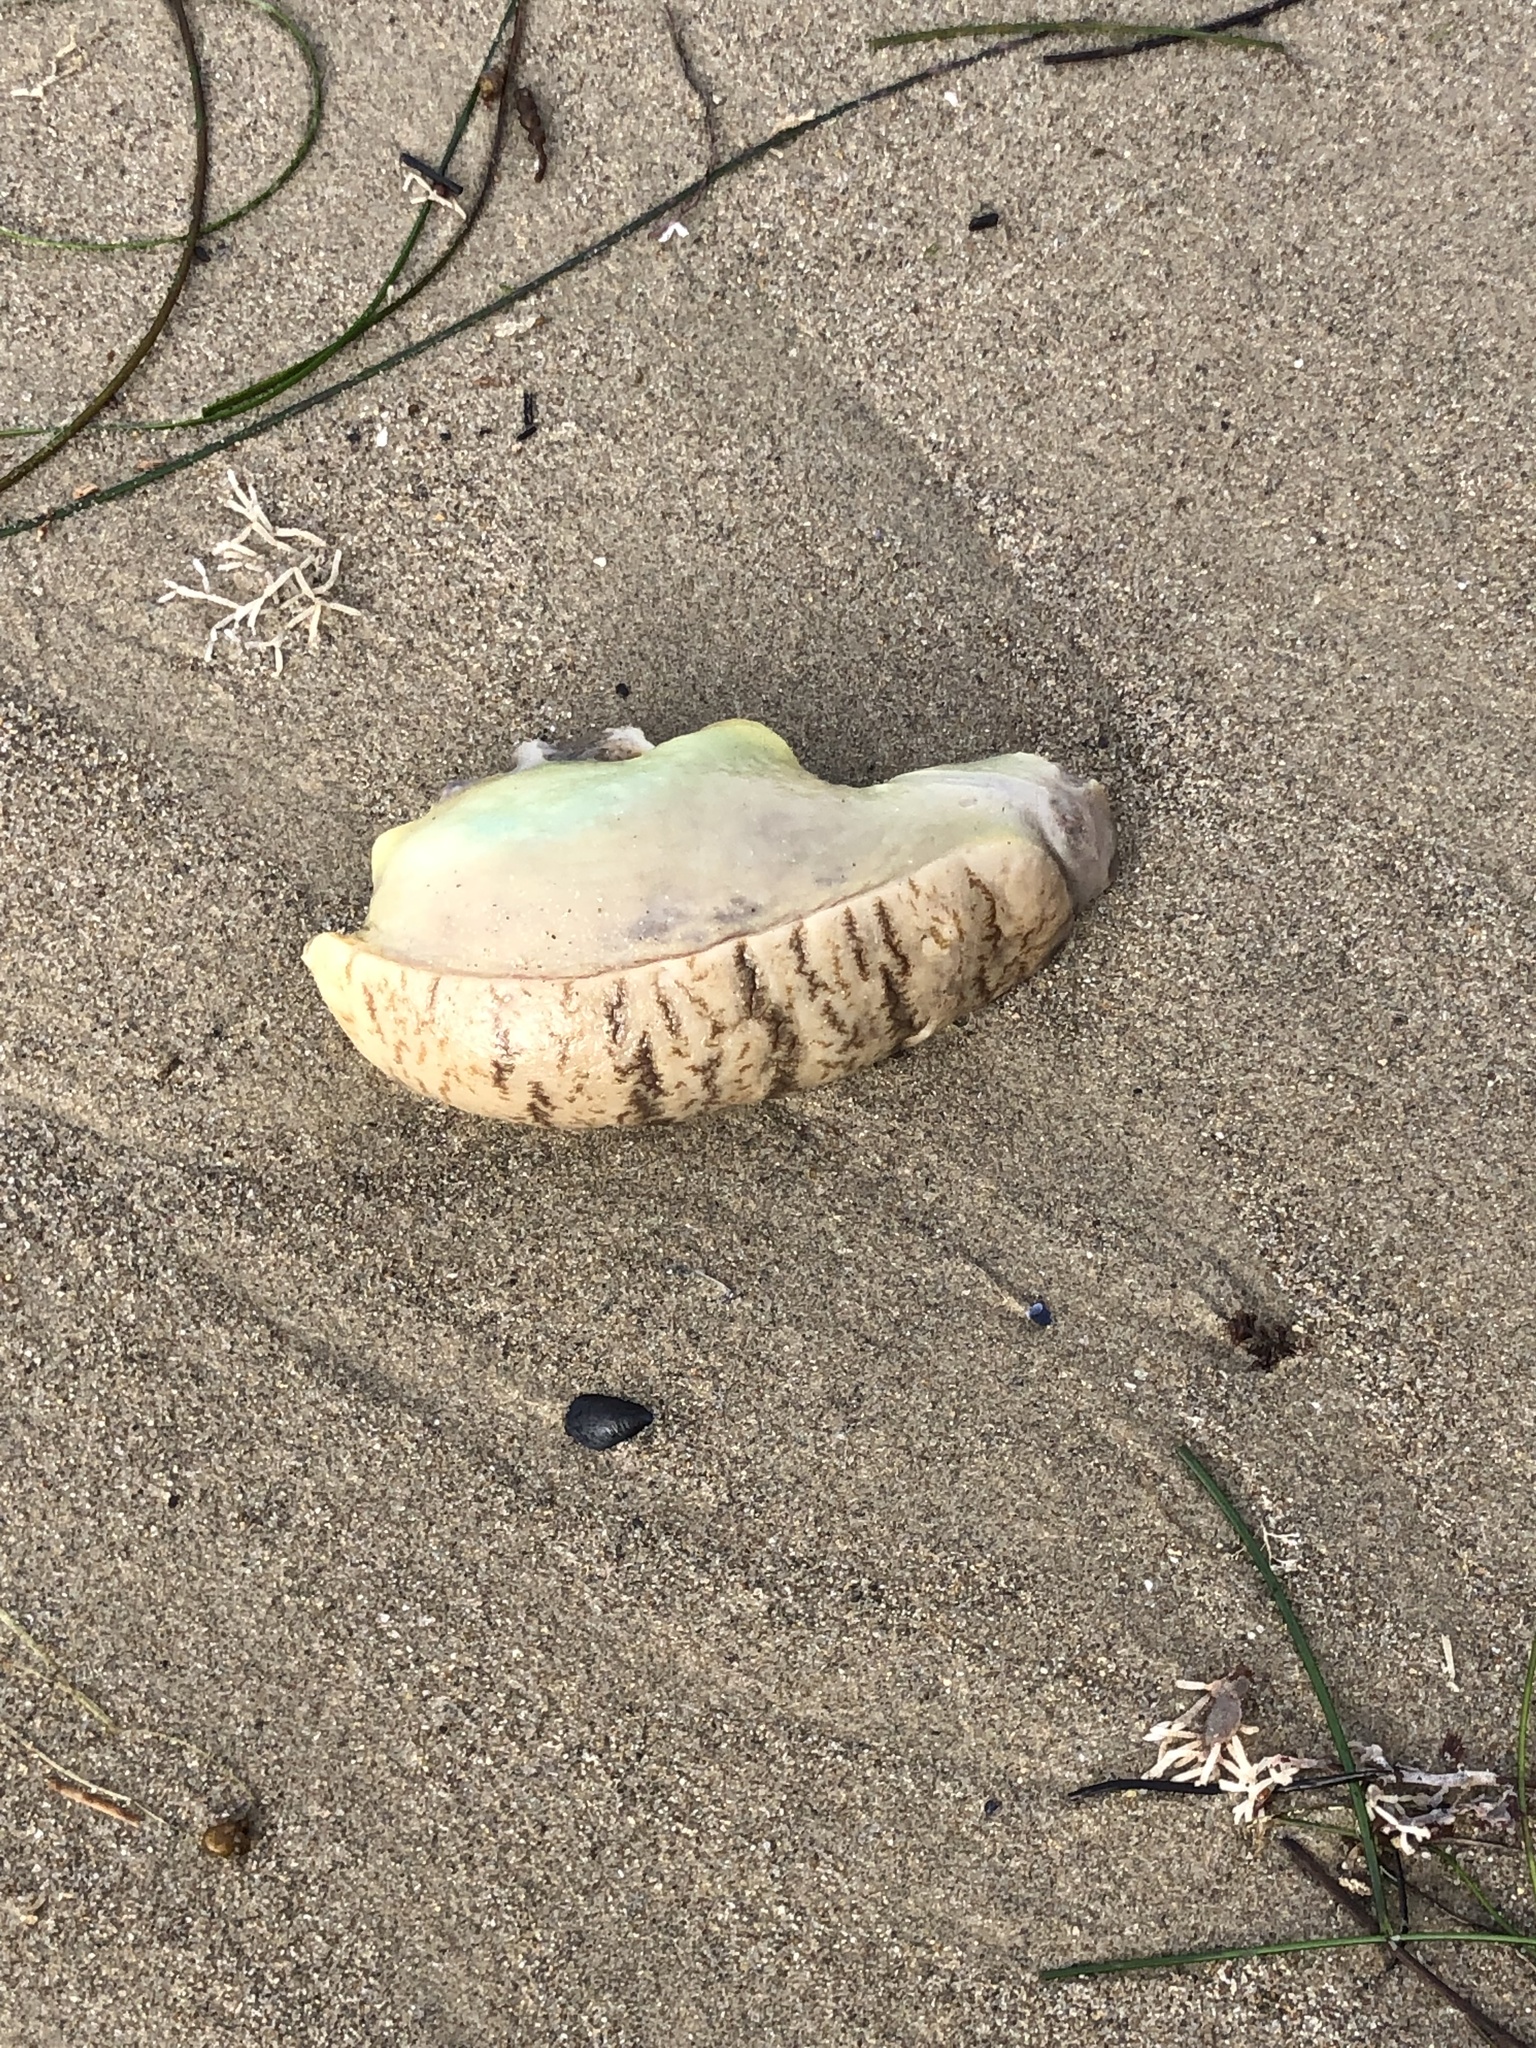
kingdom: Animalia
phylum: Mollusca
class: Gastropoda
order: Aplysiida
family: Aplysiidae
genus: Aplysia
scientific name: Aplysia californica
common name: California seahare
